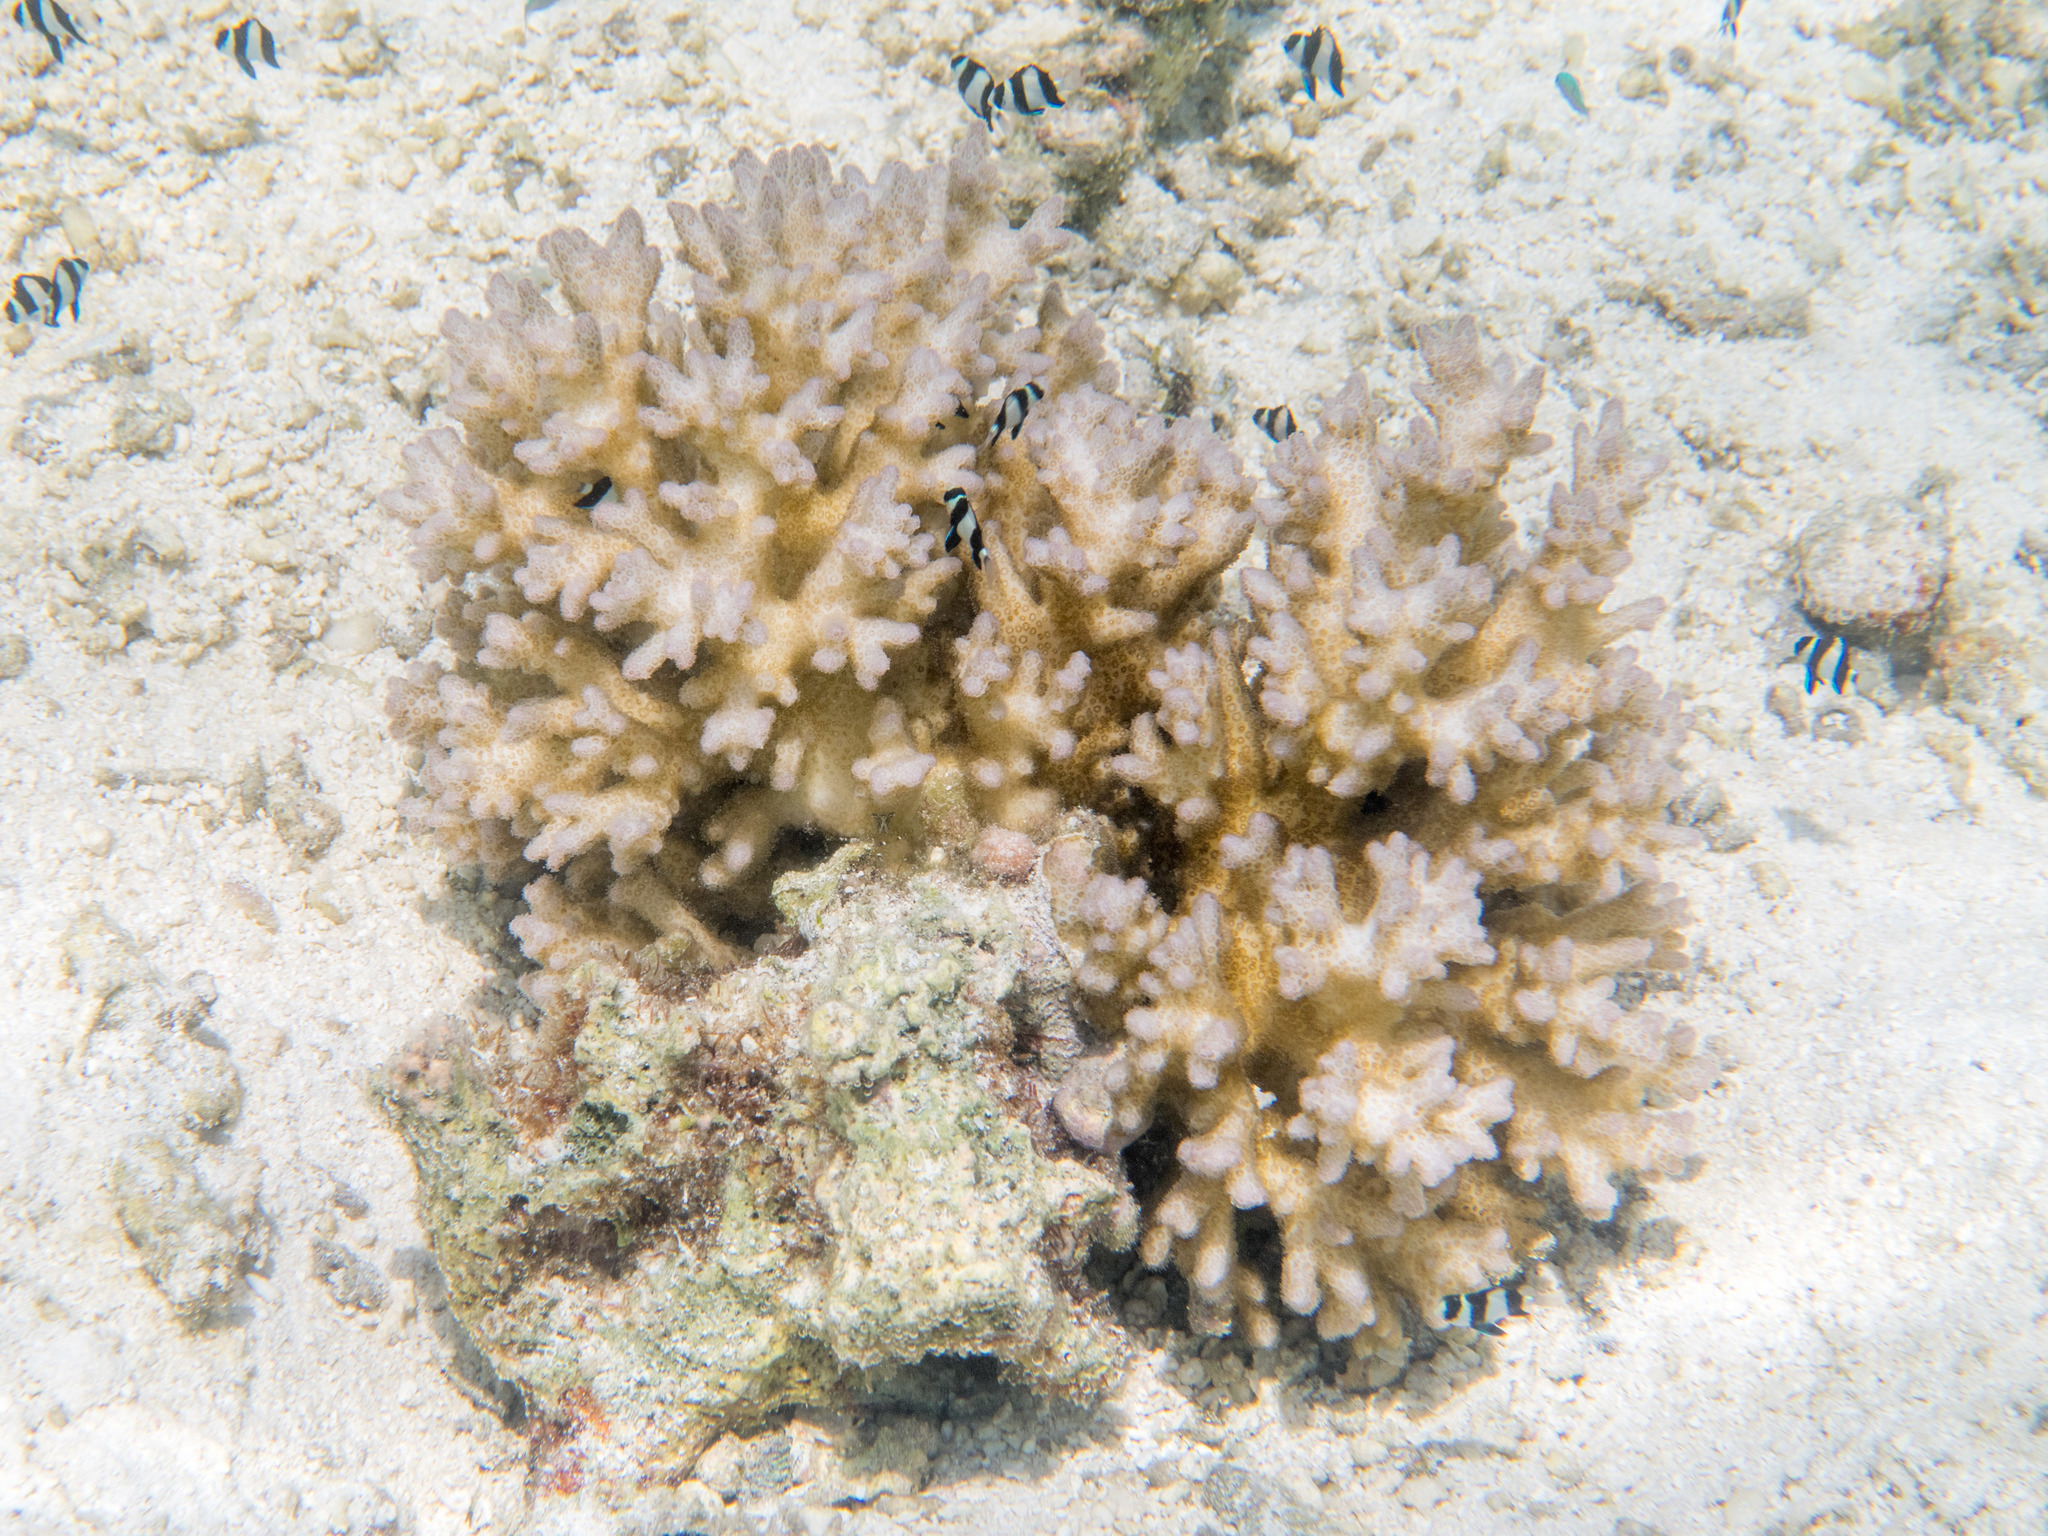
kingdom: Animalia
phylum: Cnidaria
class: Anthozoa
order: Scleractinia
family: Pocilloporidae
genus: Pocillopora
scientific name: Pocillopora damicornis
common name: Cauliflower coral
